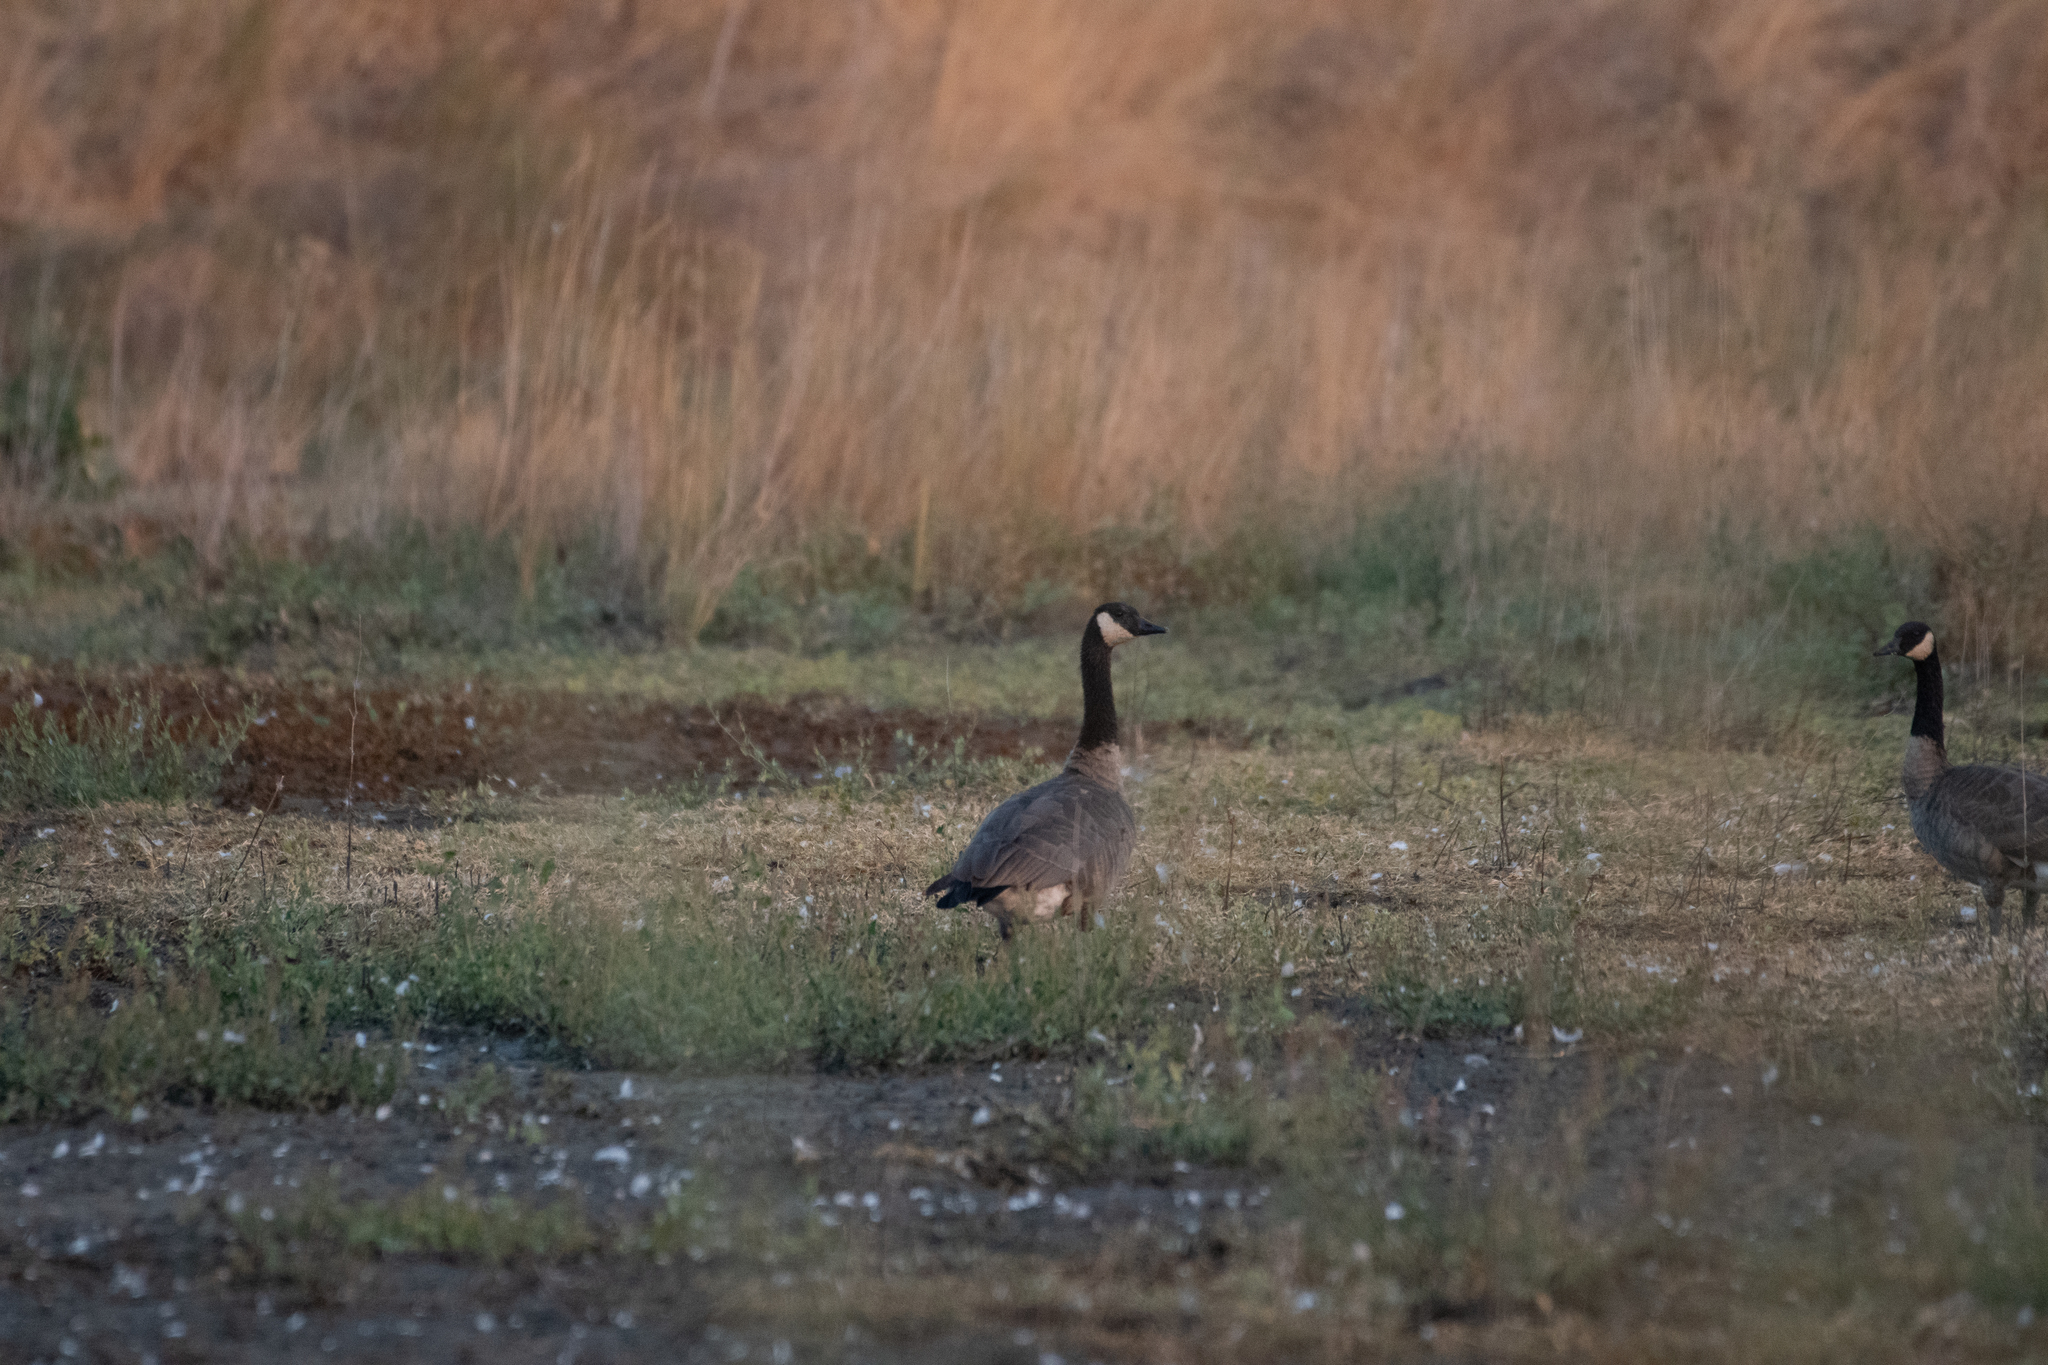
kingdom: Animalia
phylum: Chordata
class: Aves
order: Anseriformes
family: Anatidae
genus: Branta
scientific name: Branta canadensis
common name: Canada goose
